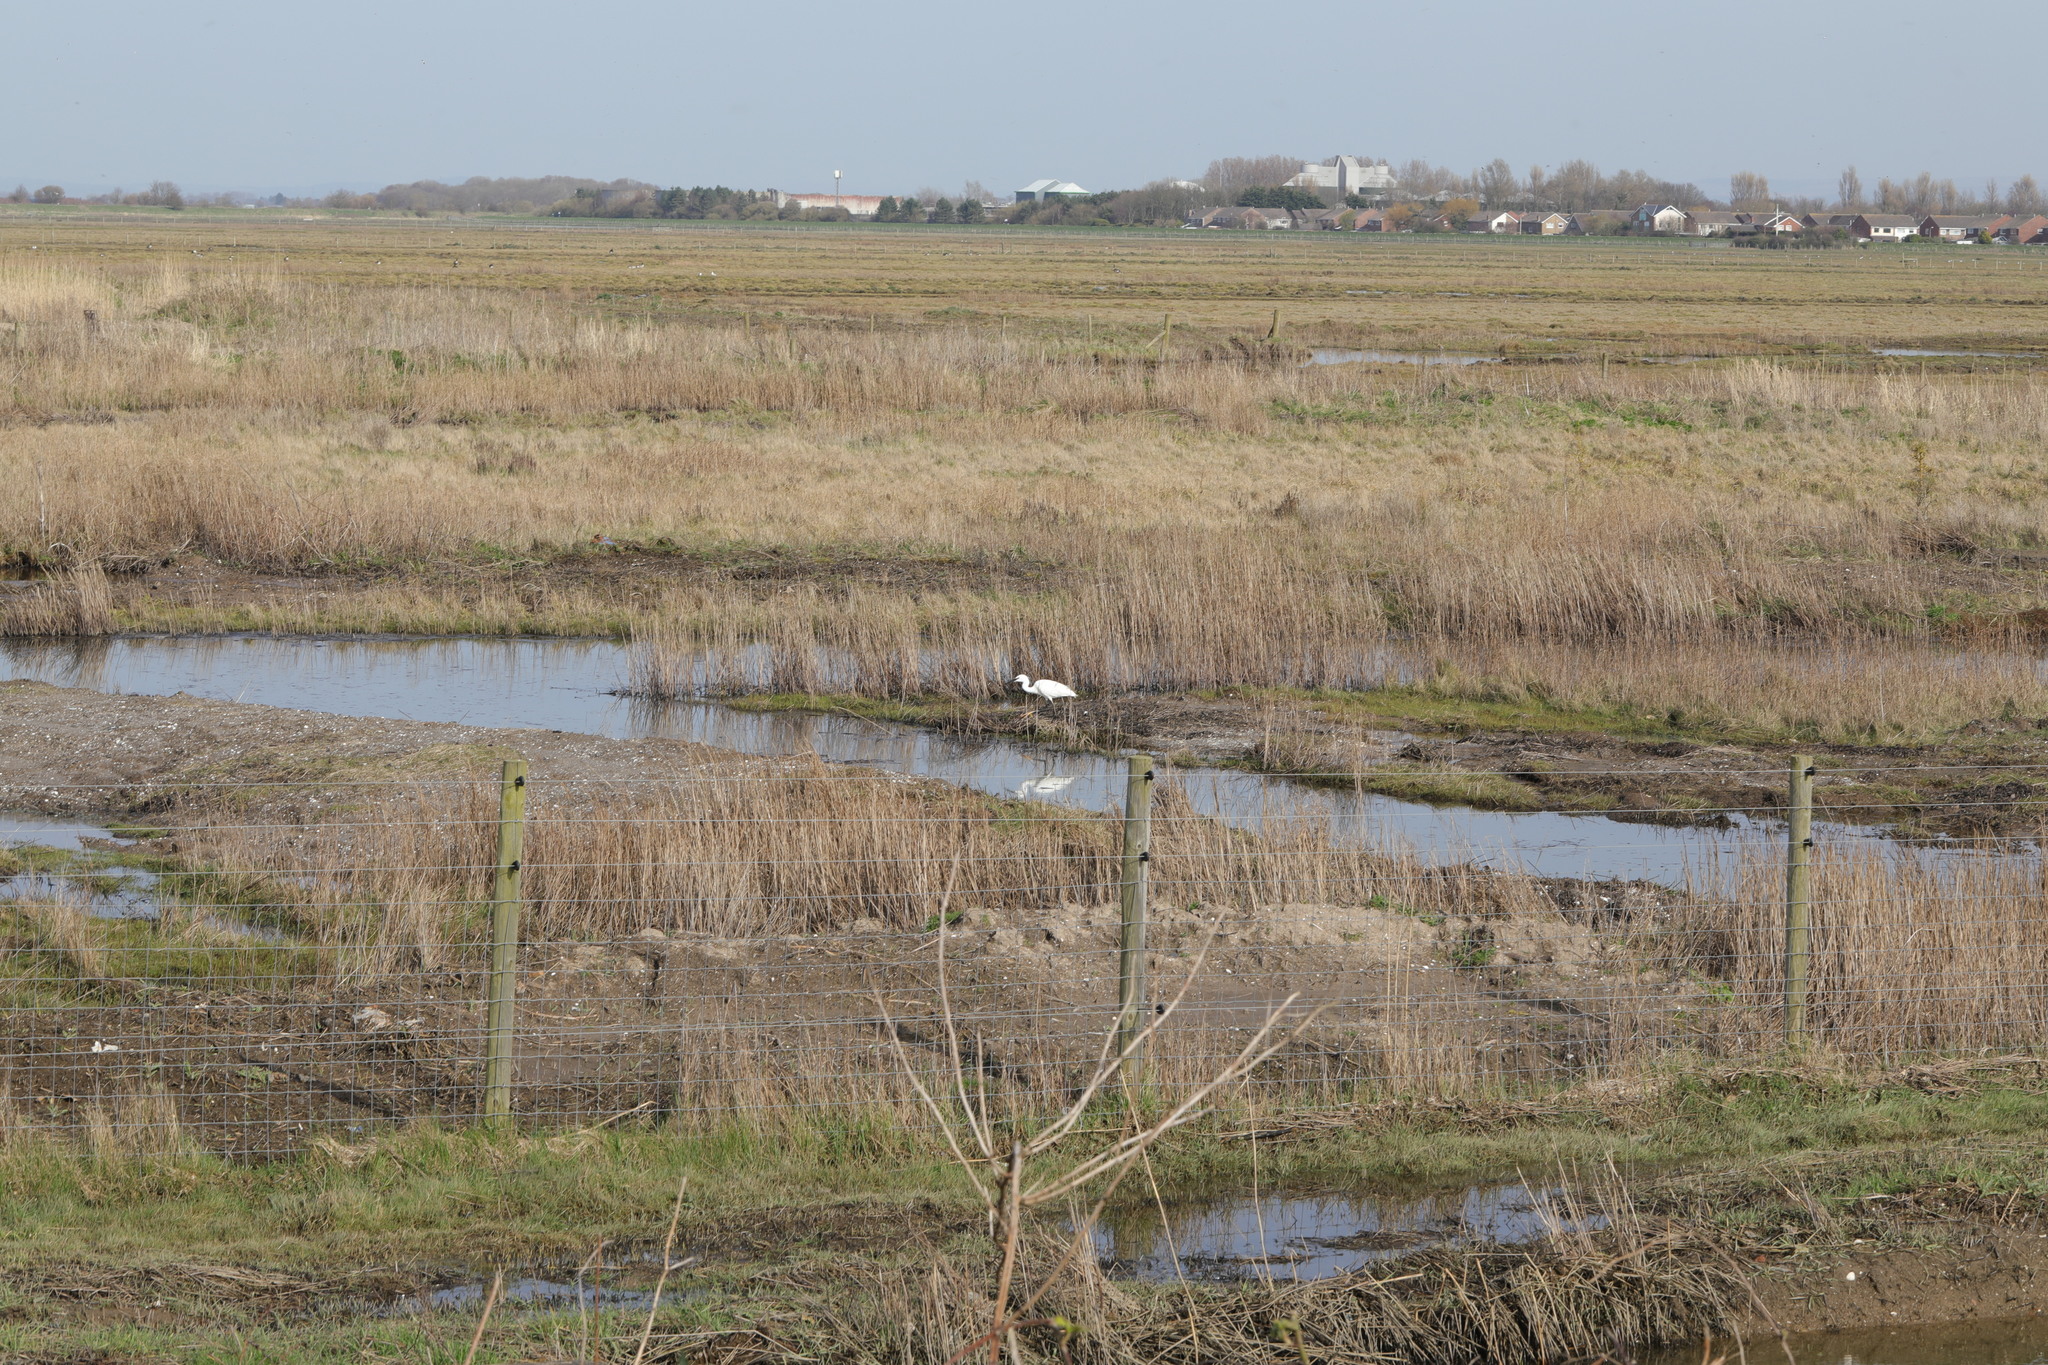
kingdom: Animalia
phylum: Chordata
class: Aves
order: Pelecaniformes
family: Ardeidae
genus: Egretta
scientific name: Egretta garzetta
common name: Little egret
